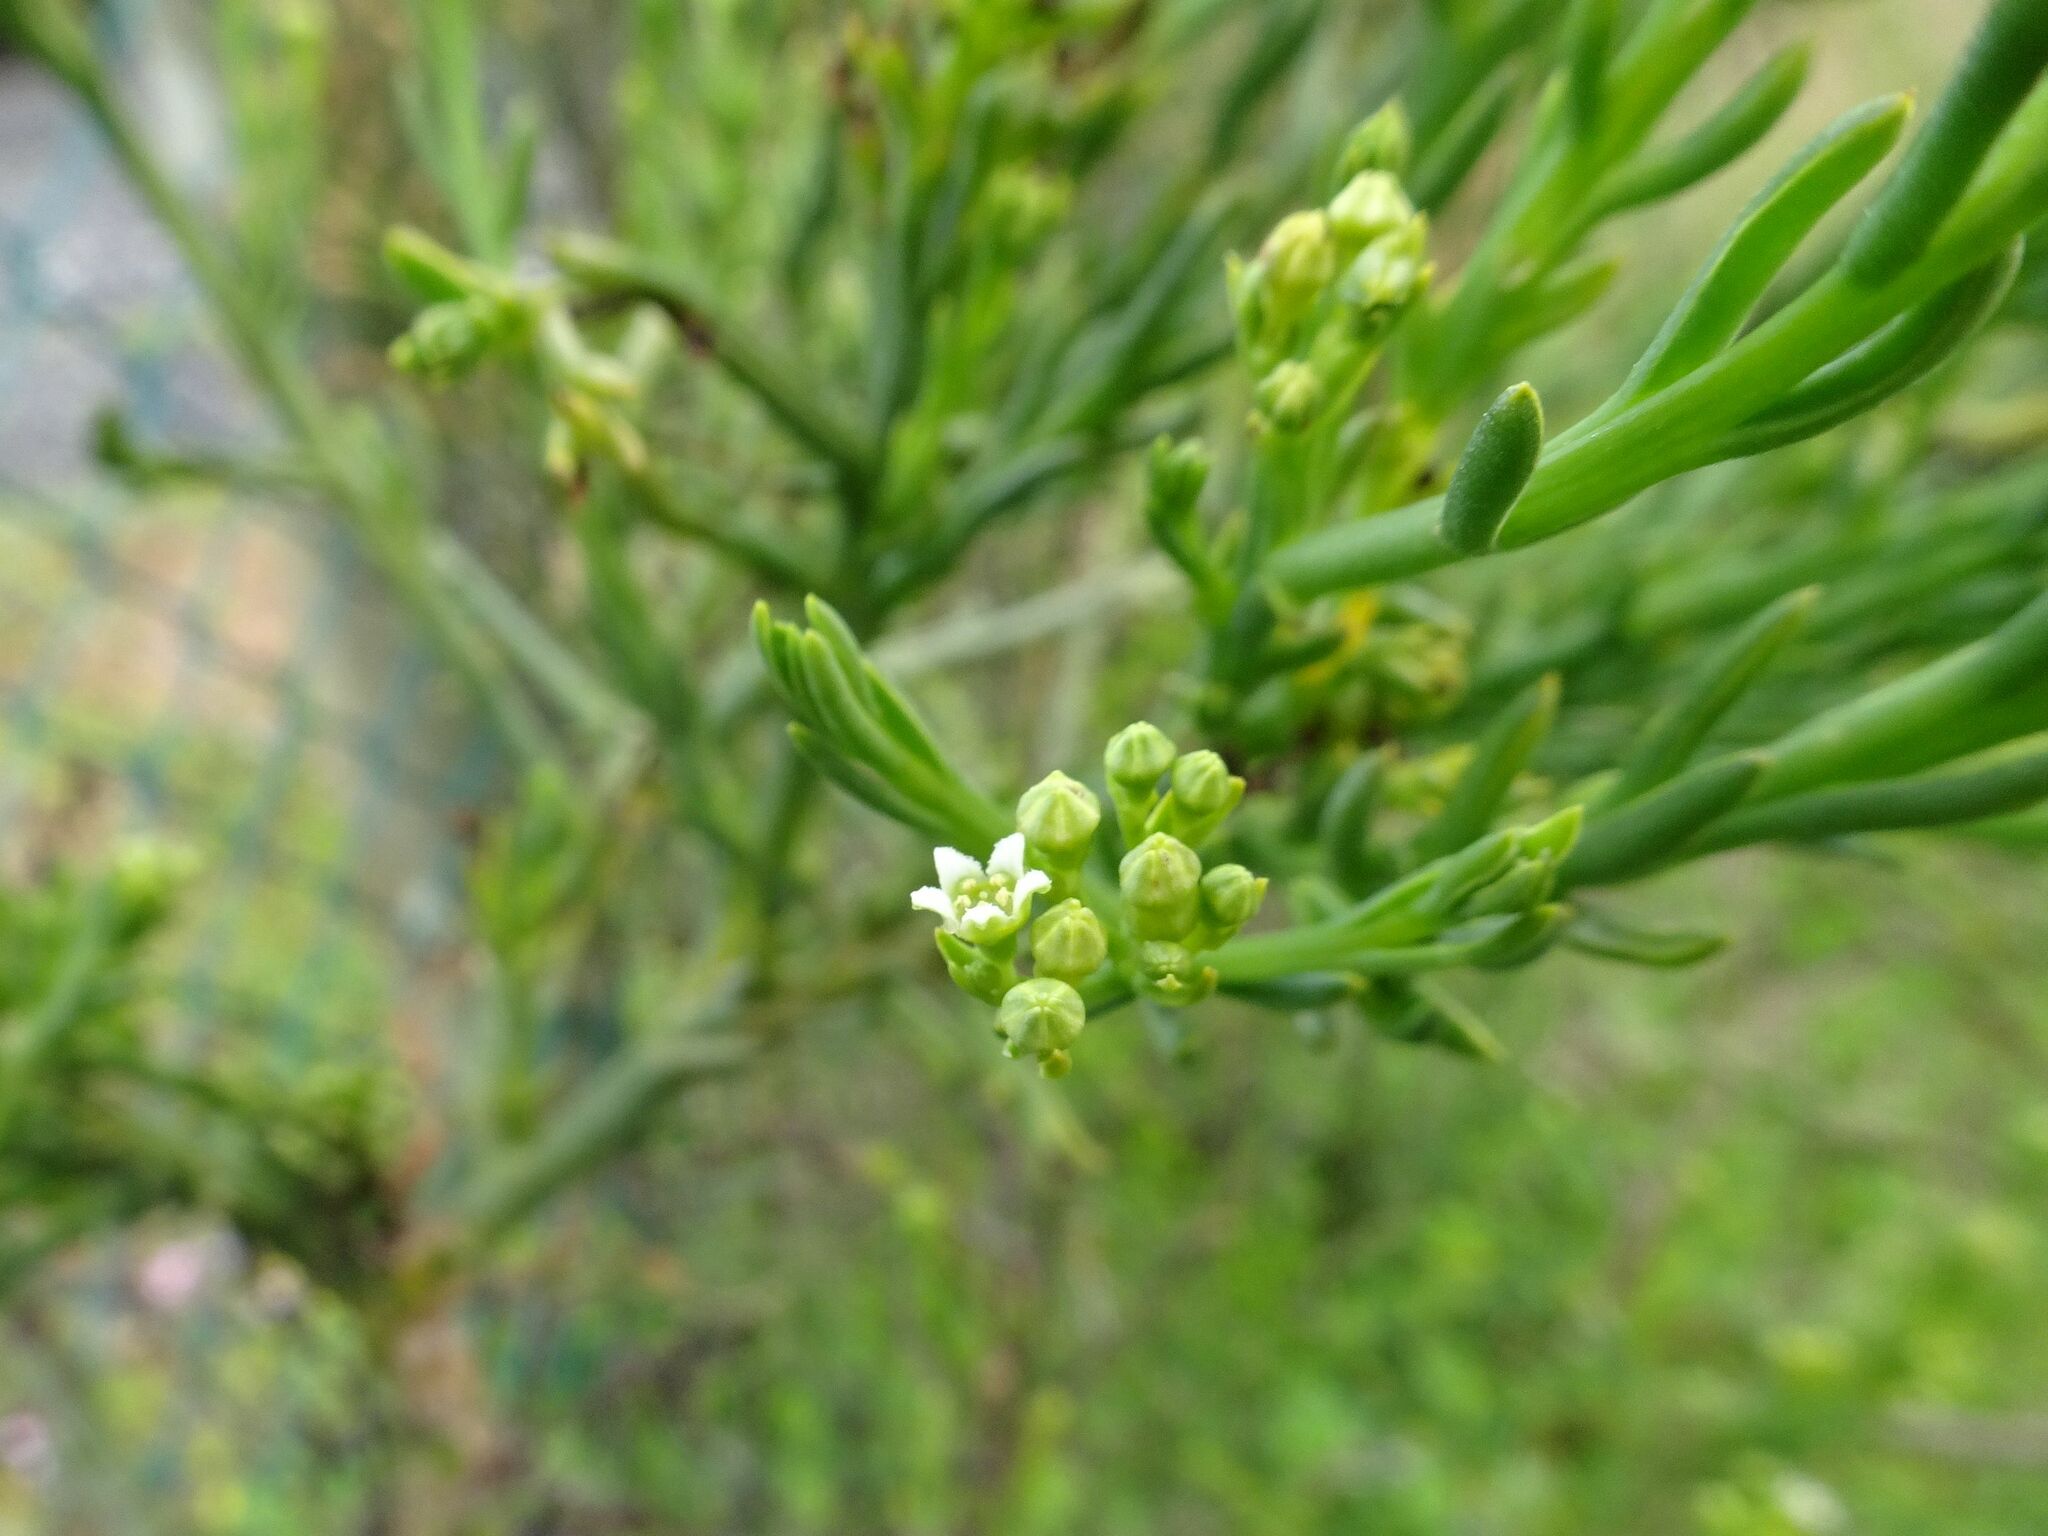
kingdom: Plantae
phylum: Tracheophyta
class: Magnoliopsida
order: Santalales
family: Thesiaceae
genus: Thesium
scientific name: Thesium strictum
